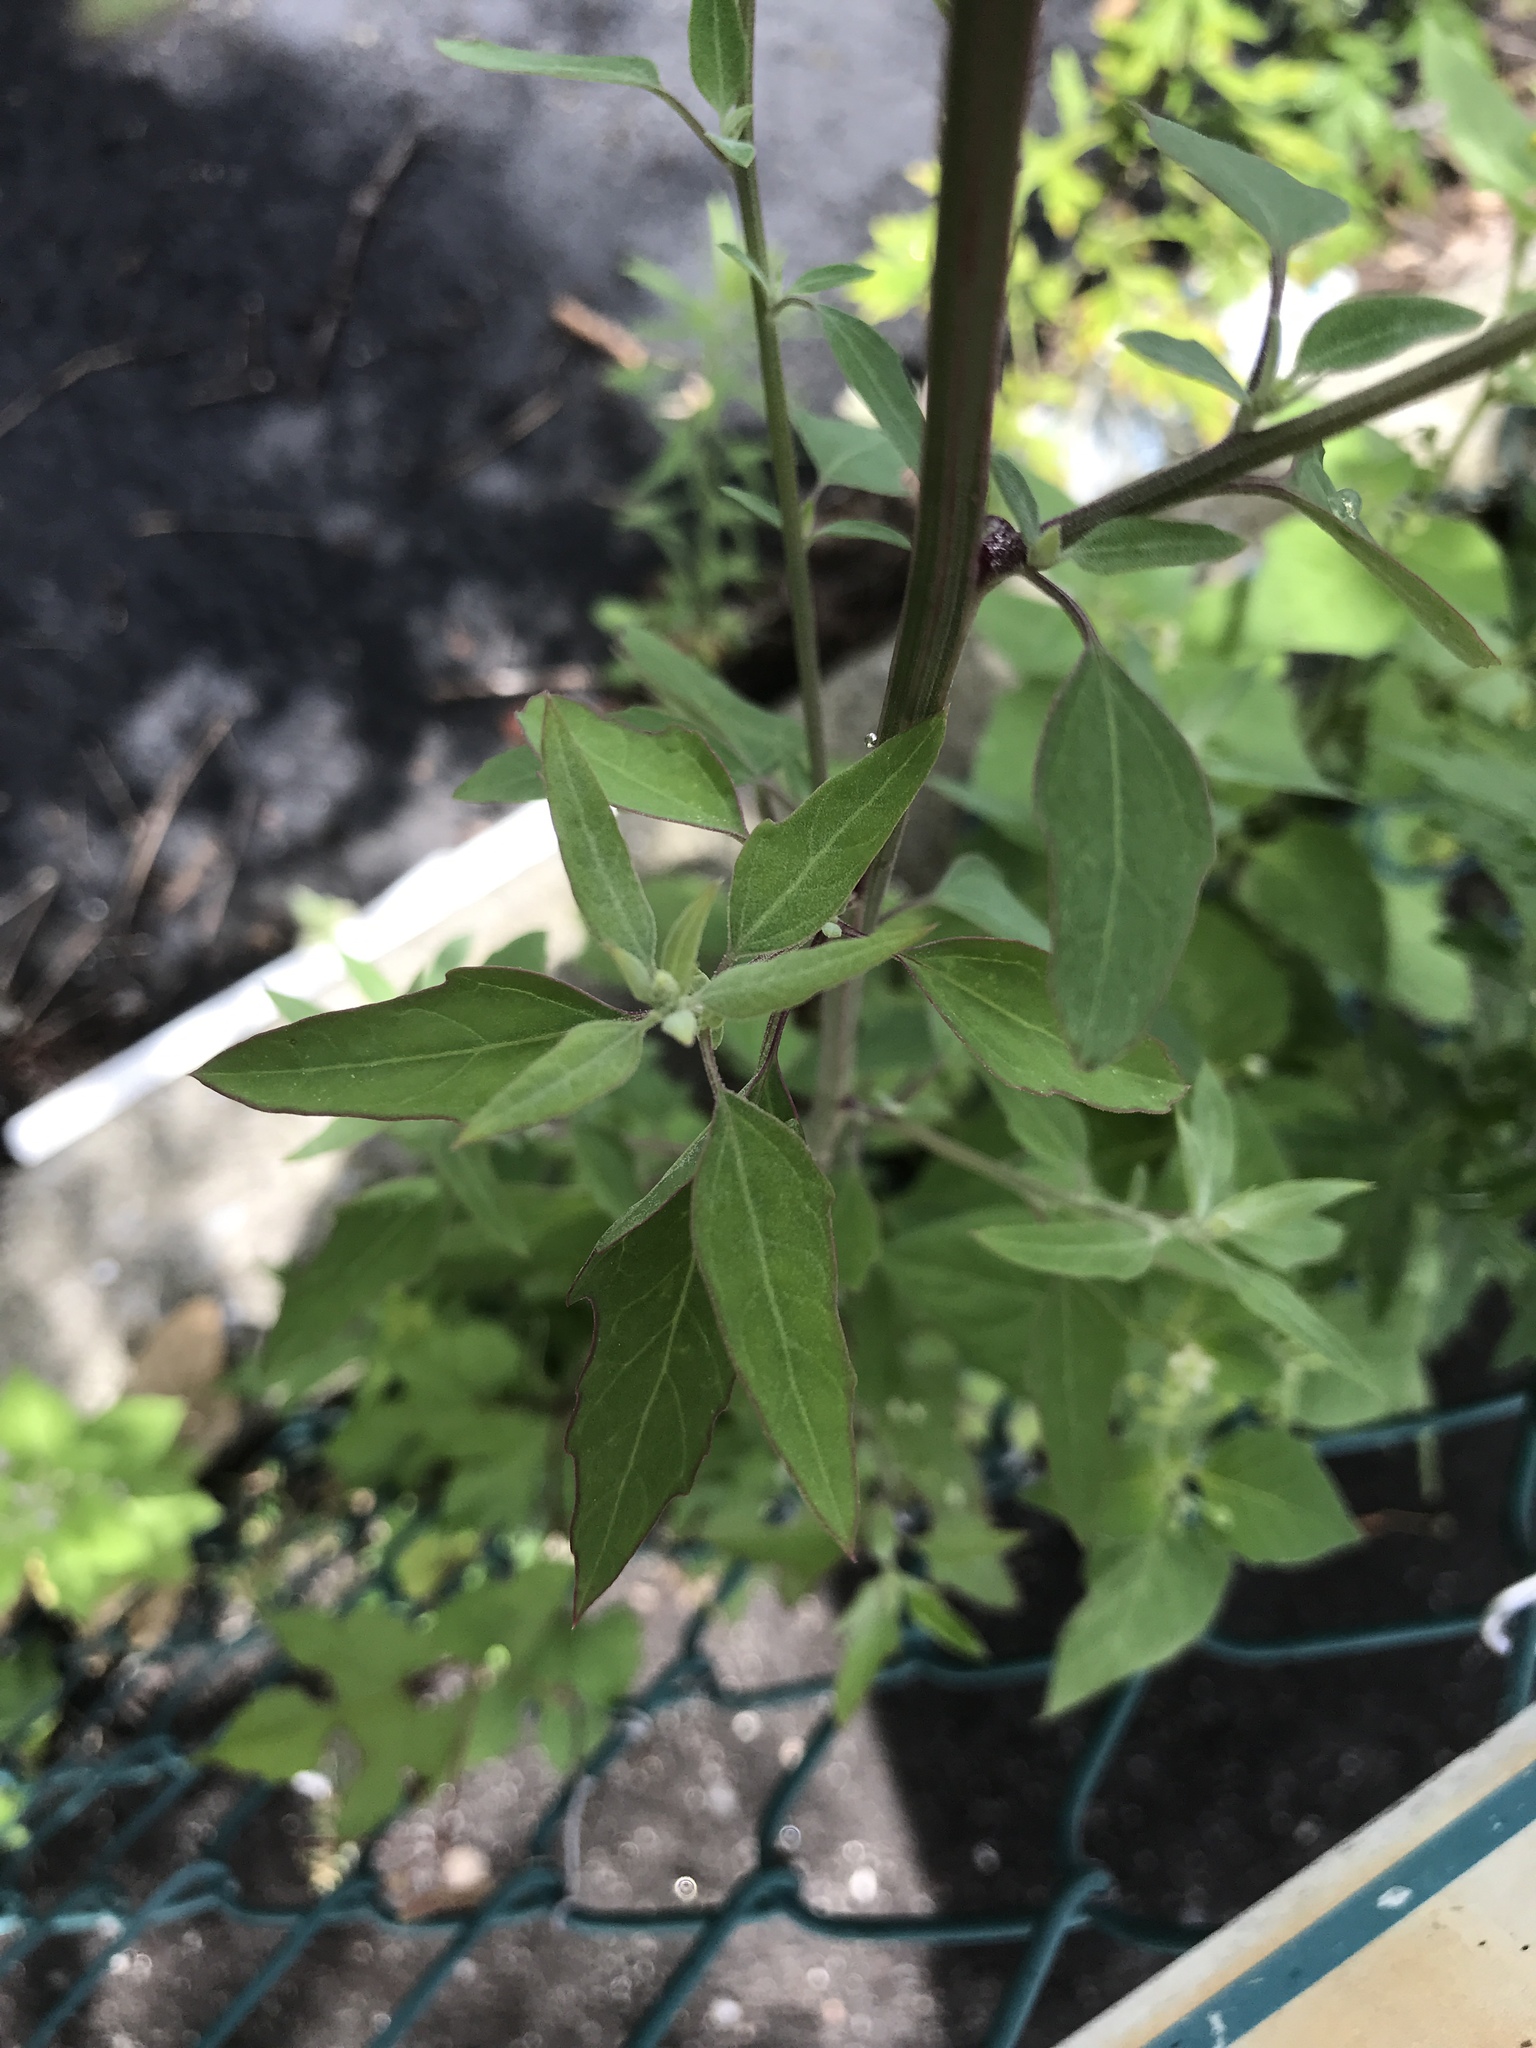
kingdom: Plantae
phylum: Tracheophyta
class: Magnoliopsida
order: Caryophyllales
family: Amaranthaceae
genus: Chenopodium
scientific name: Chenopodium album
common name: Fat-hen
